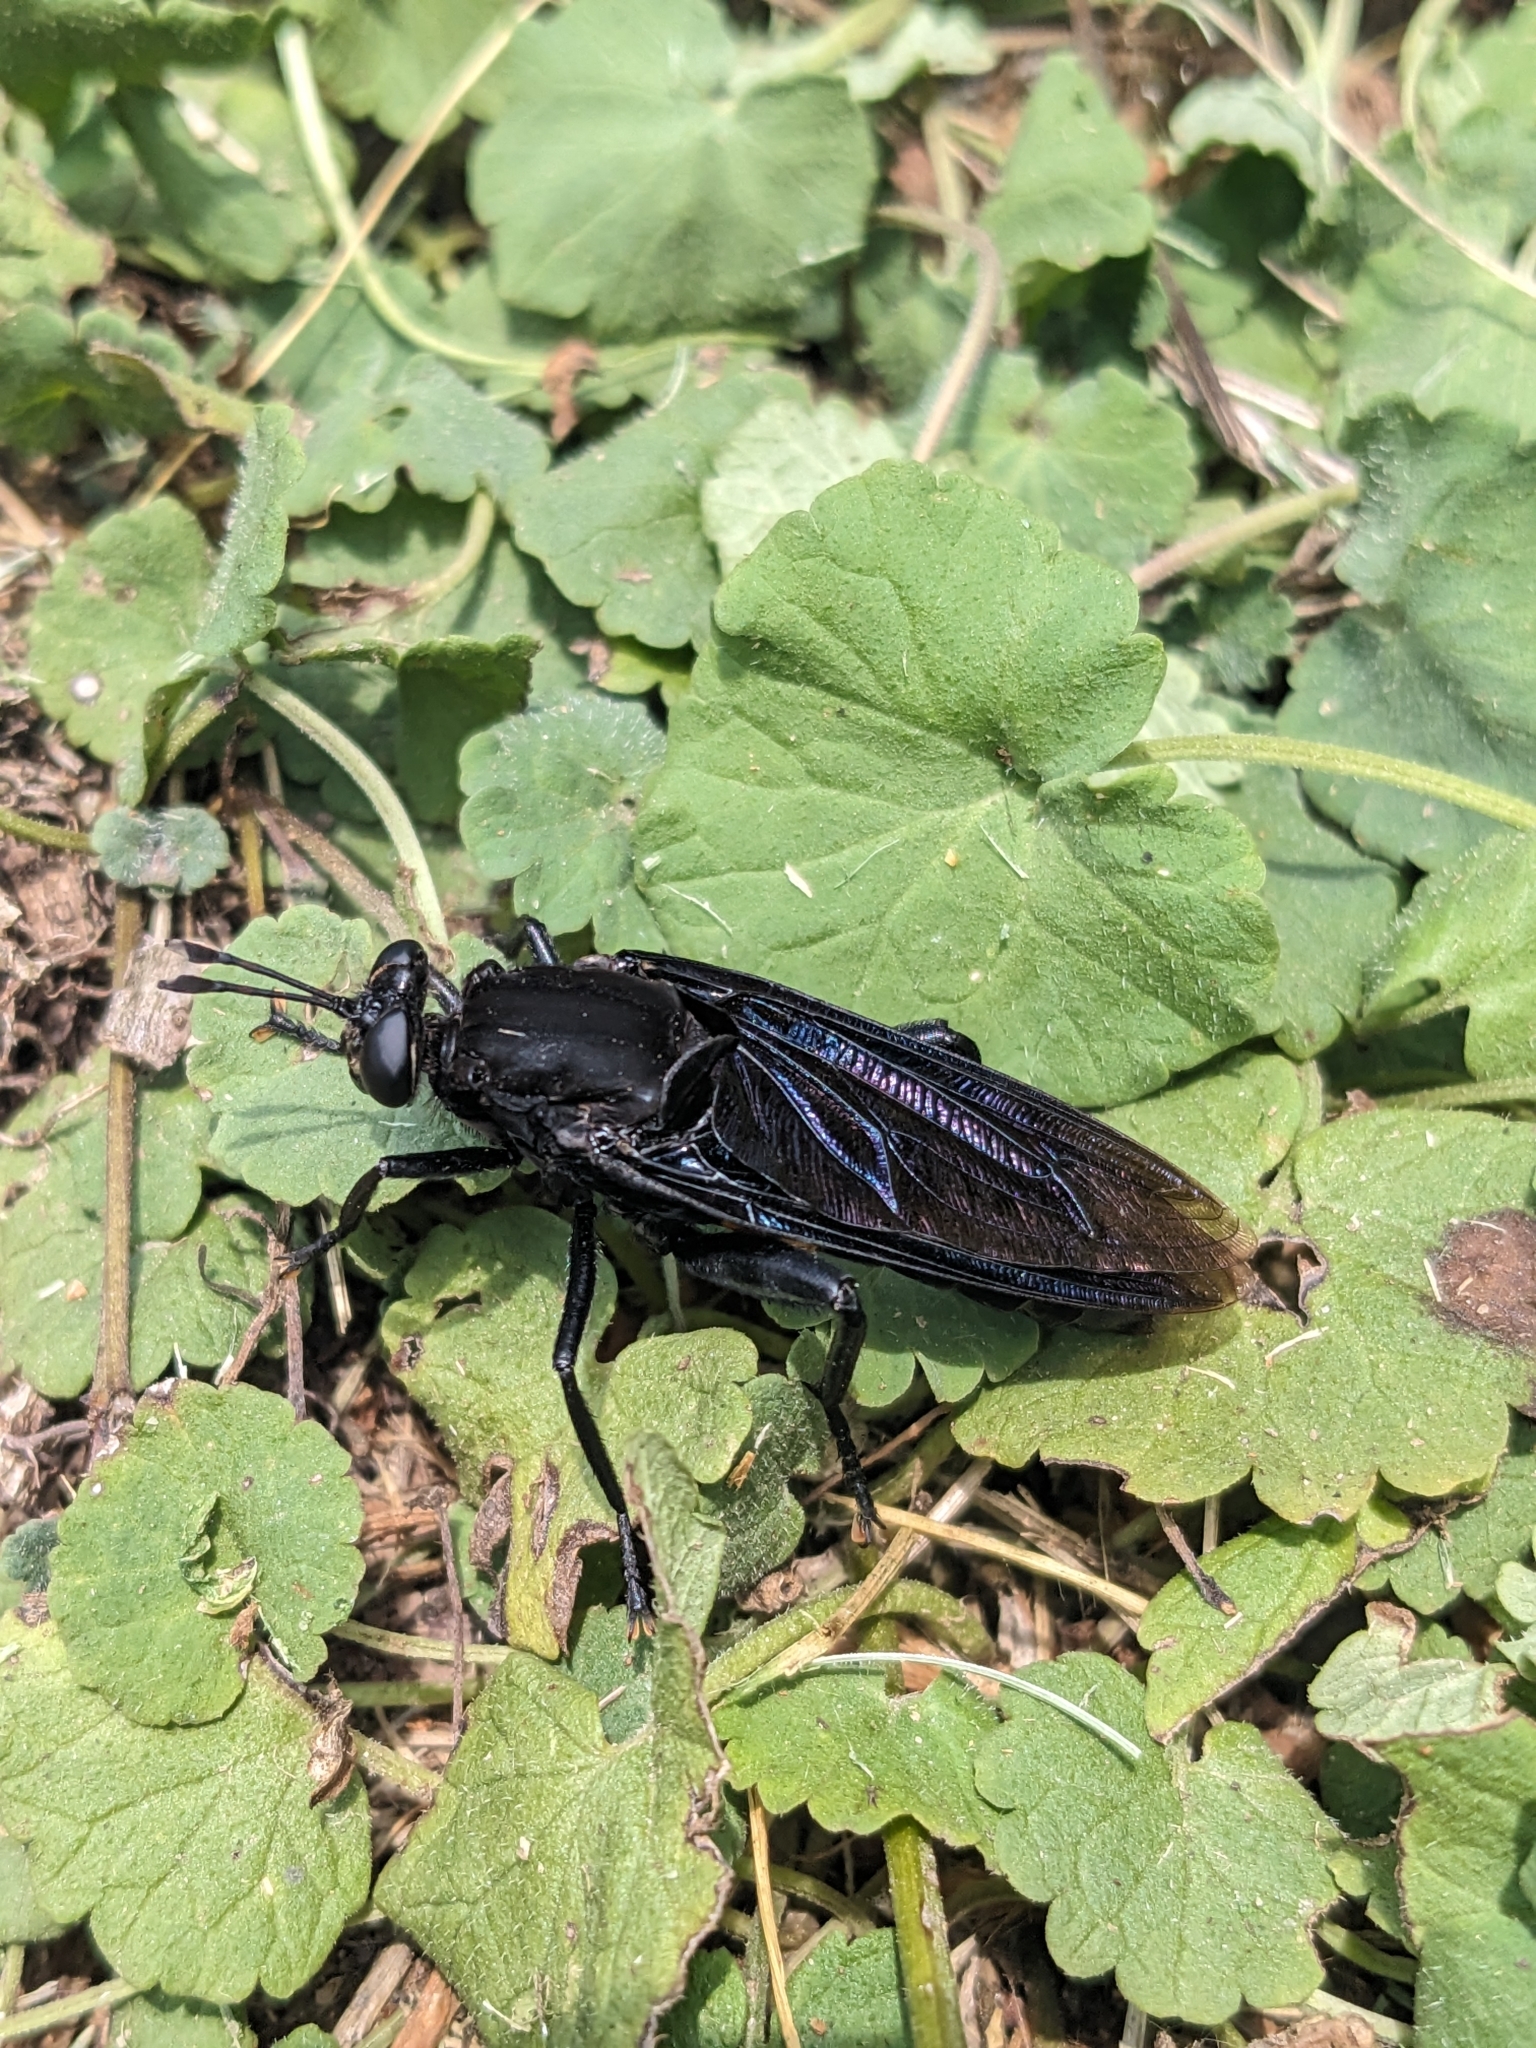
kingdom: Animalia
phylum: Arthropoda
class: Insecta
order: Diptera
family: Mydidae
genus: Mydas
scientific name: Mydas clavatus
